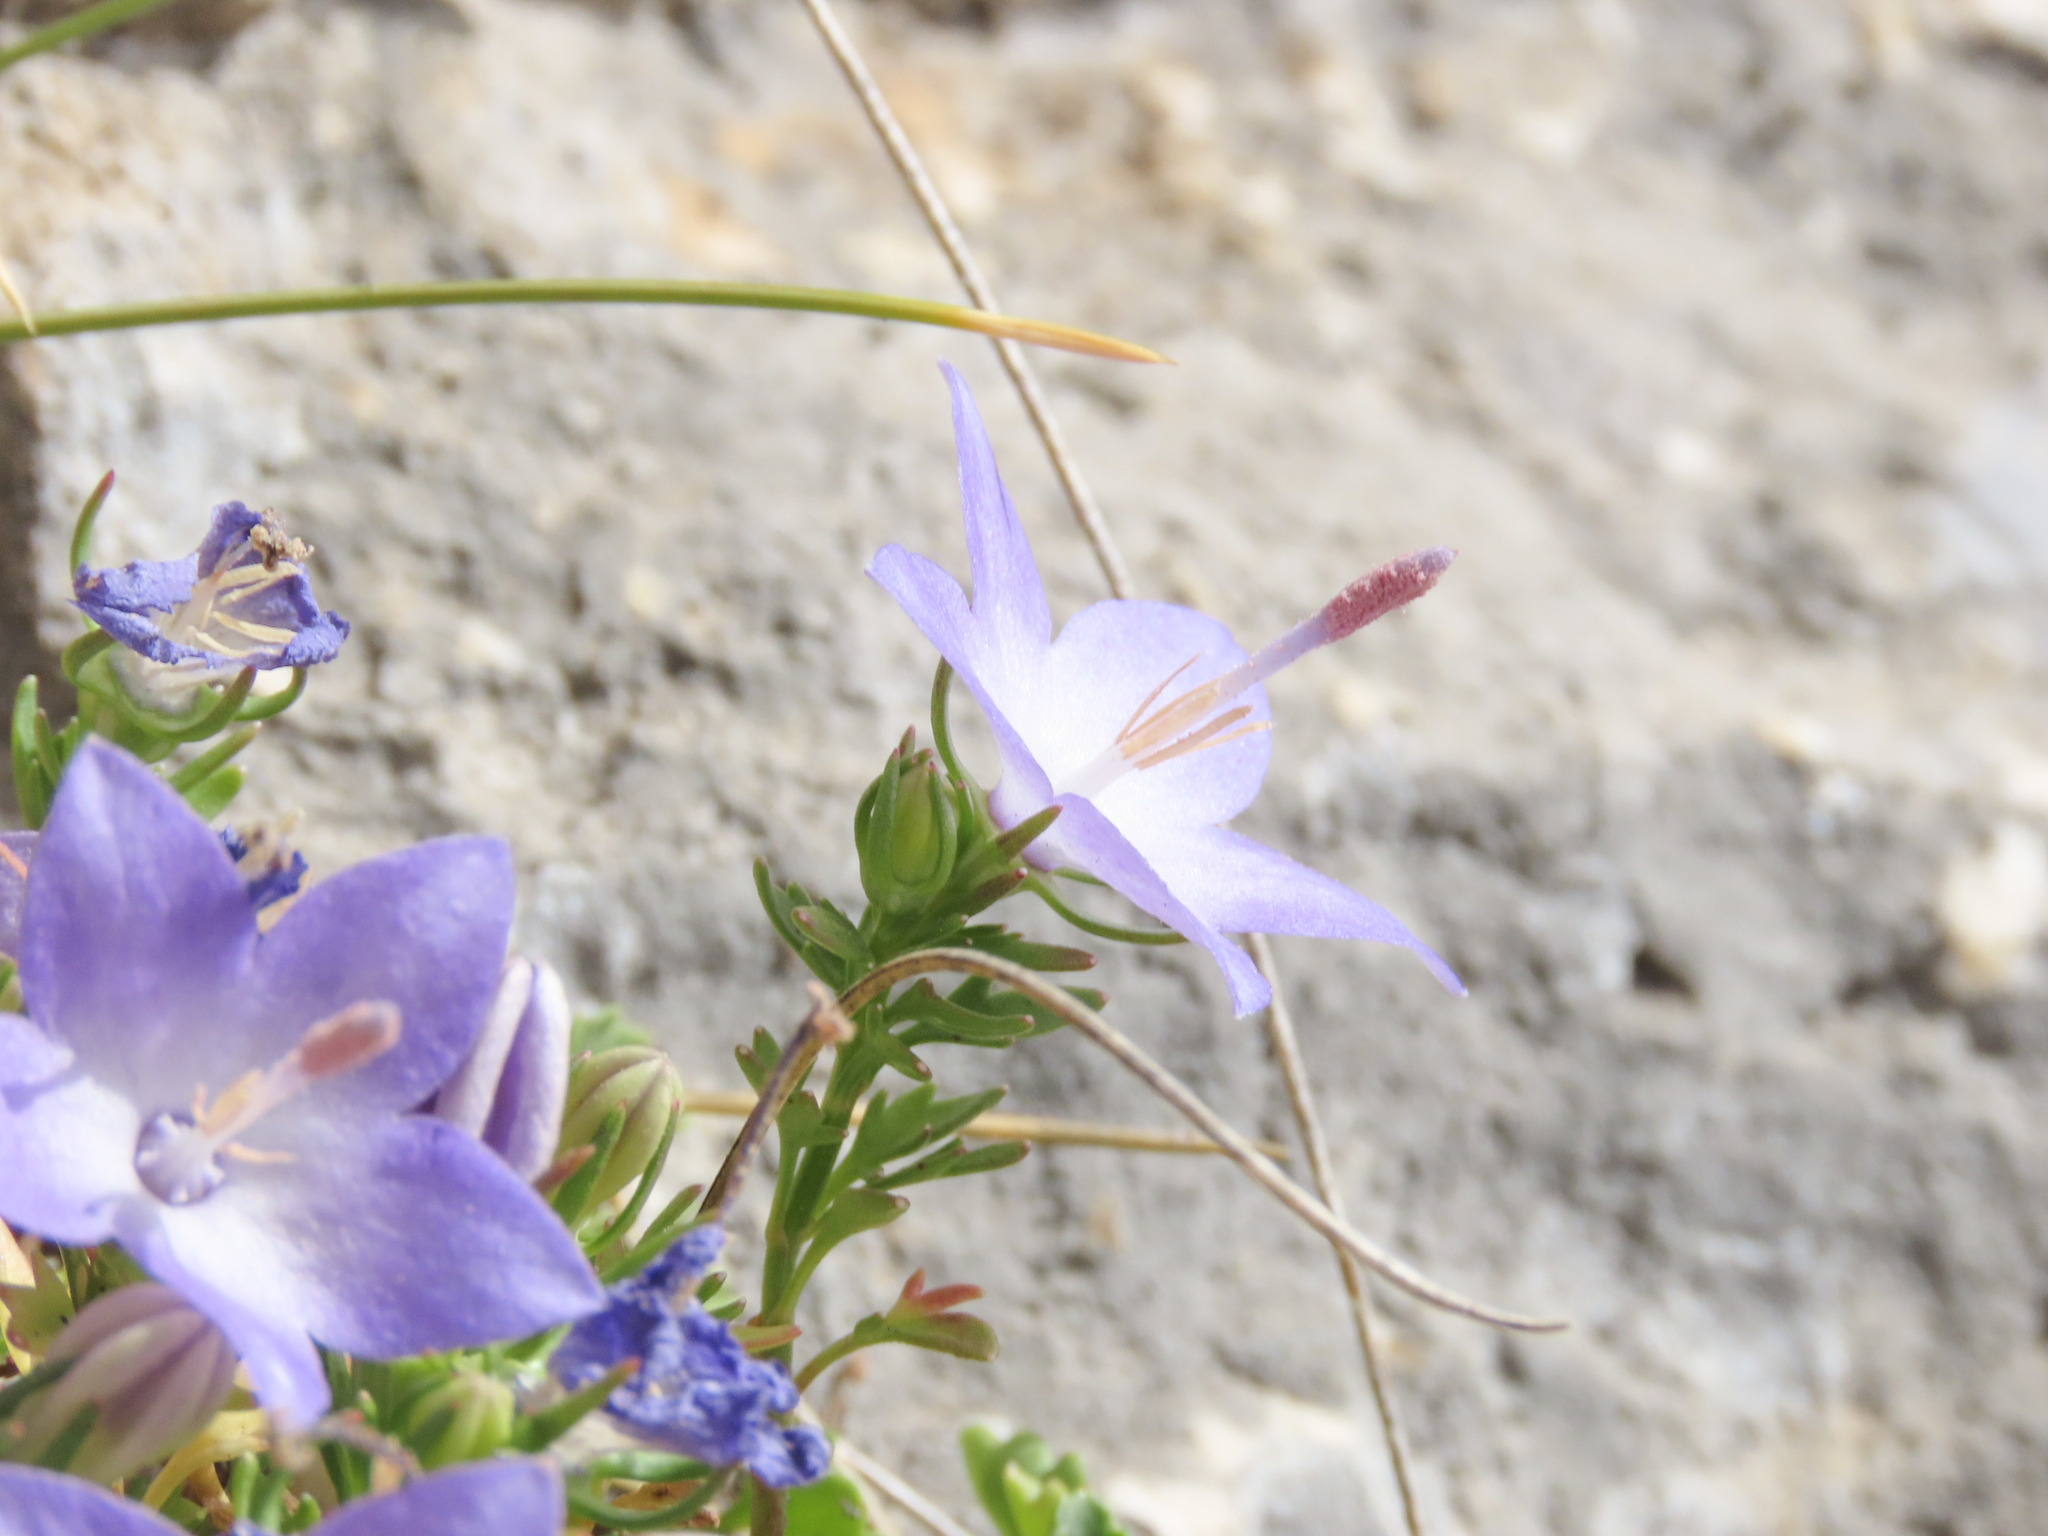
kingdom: Plantae
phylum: Tracheophyta
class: Magnoliopsida
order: Asterales
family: Campanulaceae
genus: Campanula
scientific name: Campanula fragilis
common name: Italian bellflower
